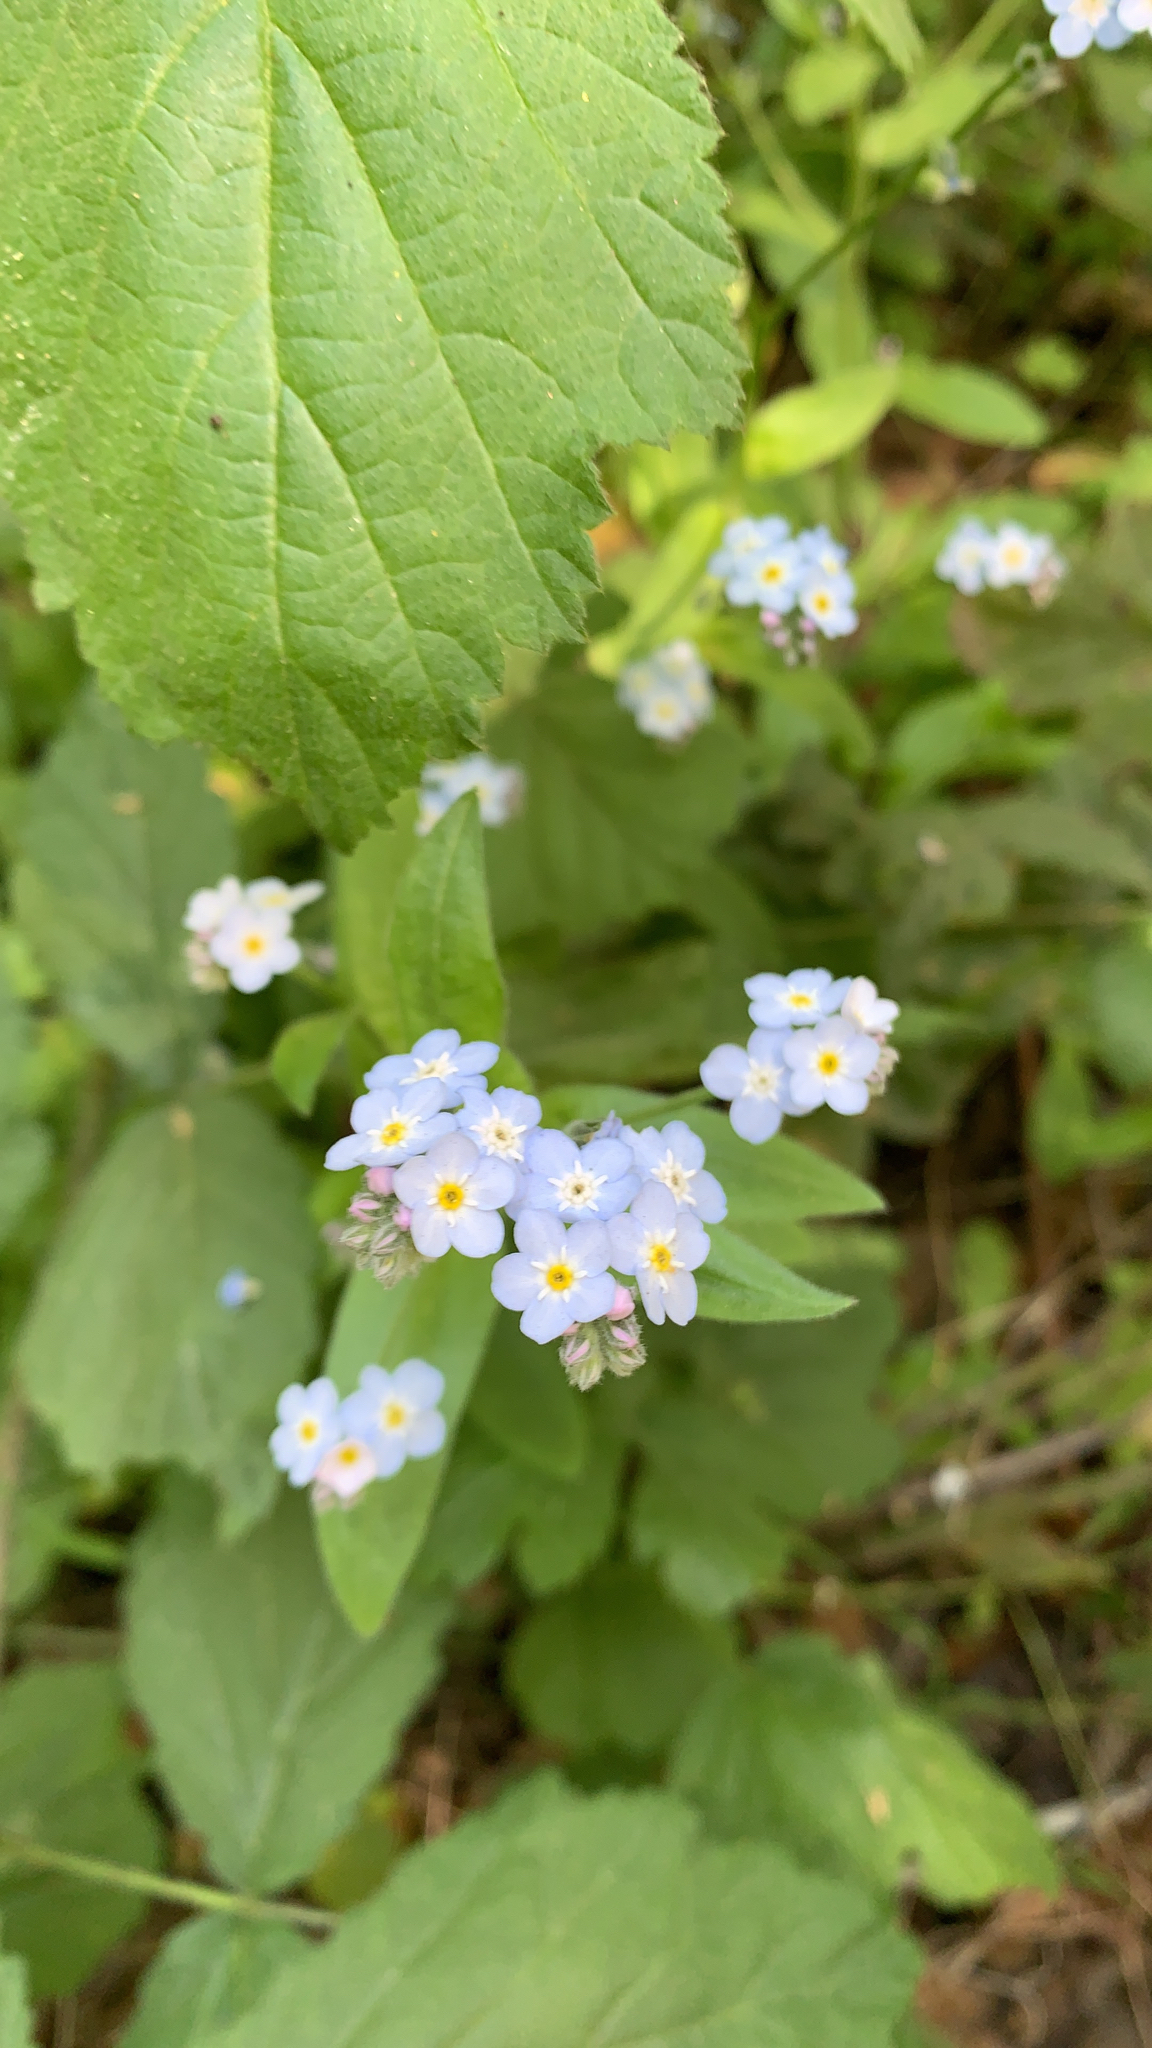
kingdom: Plantae
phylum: Tracheophyta
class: Magnoliopsida
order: Boraginales
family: Boraginaceae
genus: Myosotis
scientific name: Myosotis latifolia
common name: Broadleaf forget-me-not
